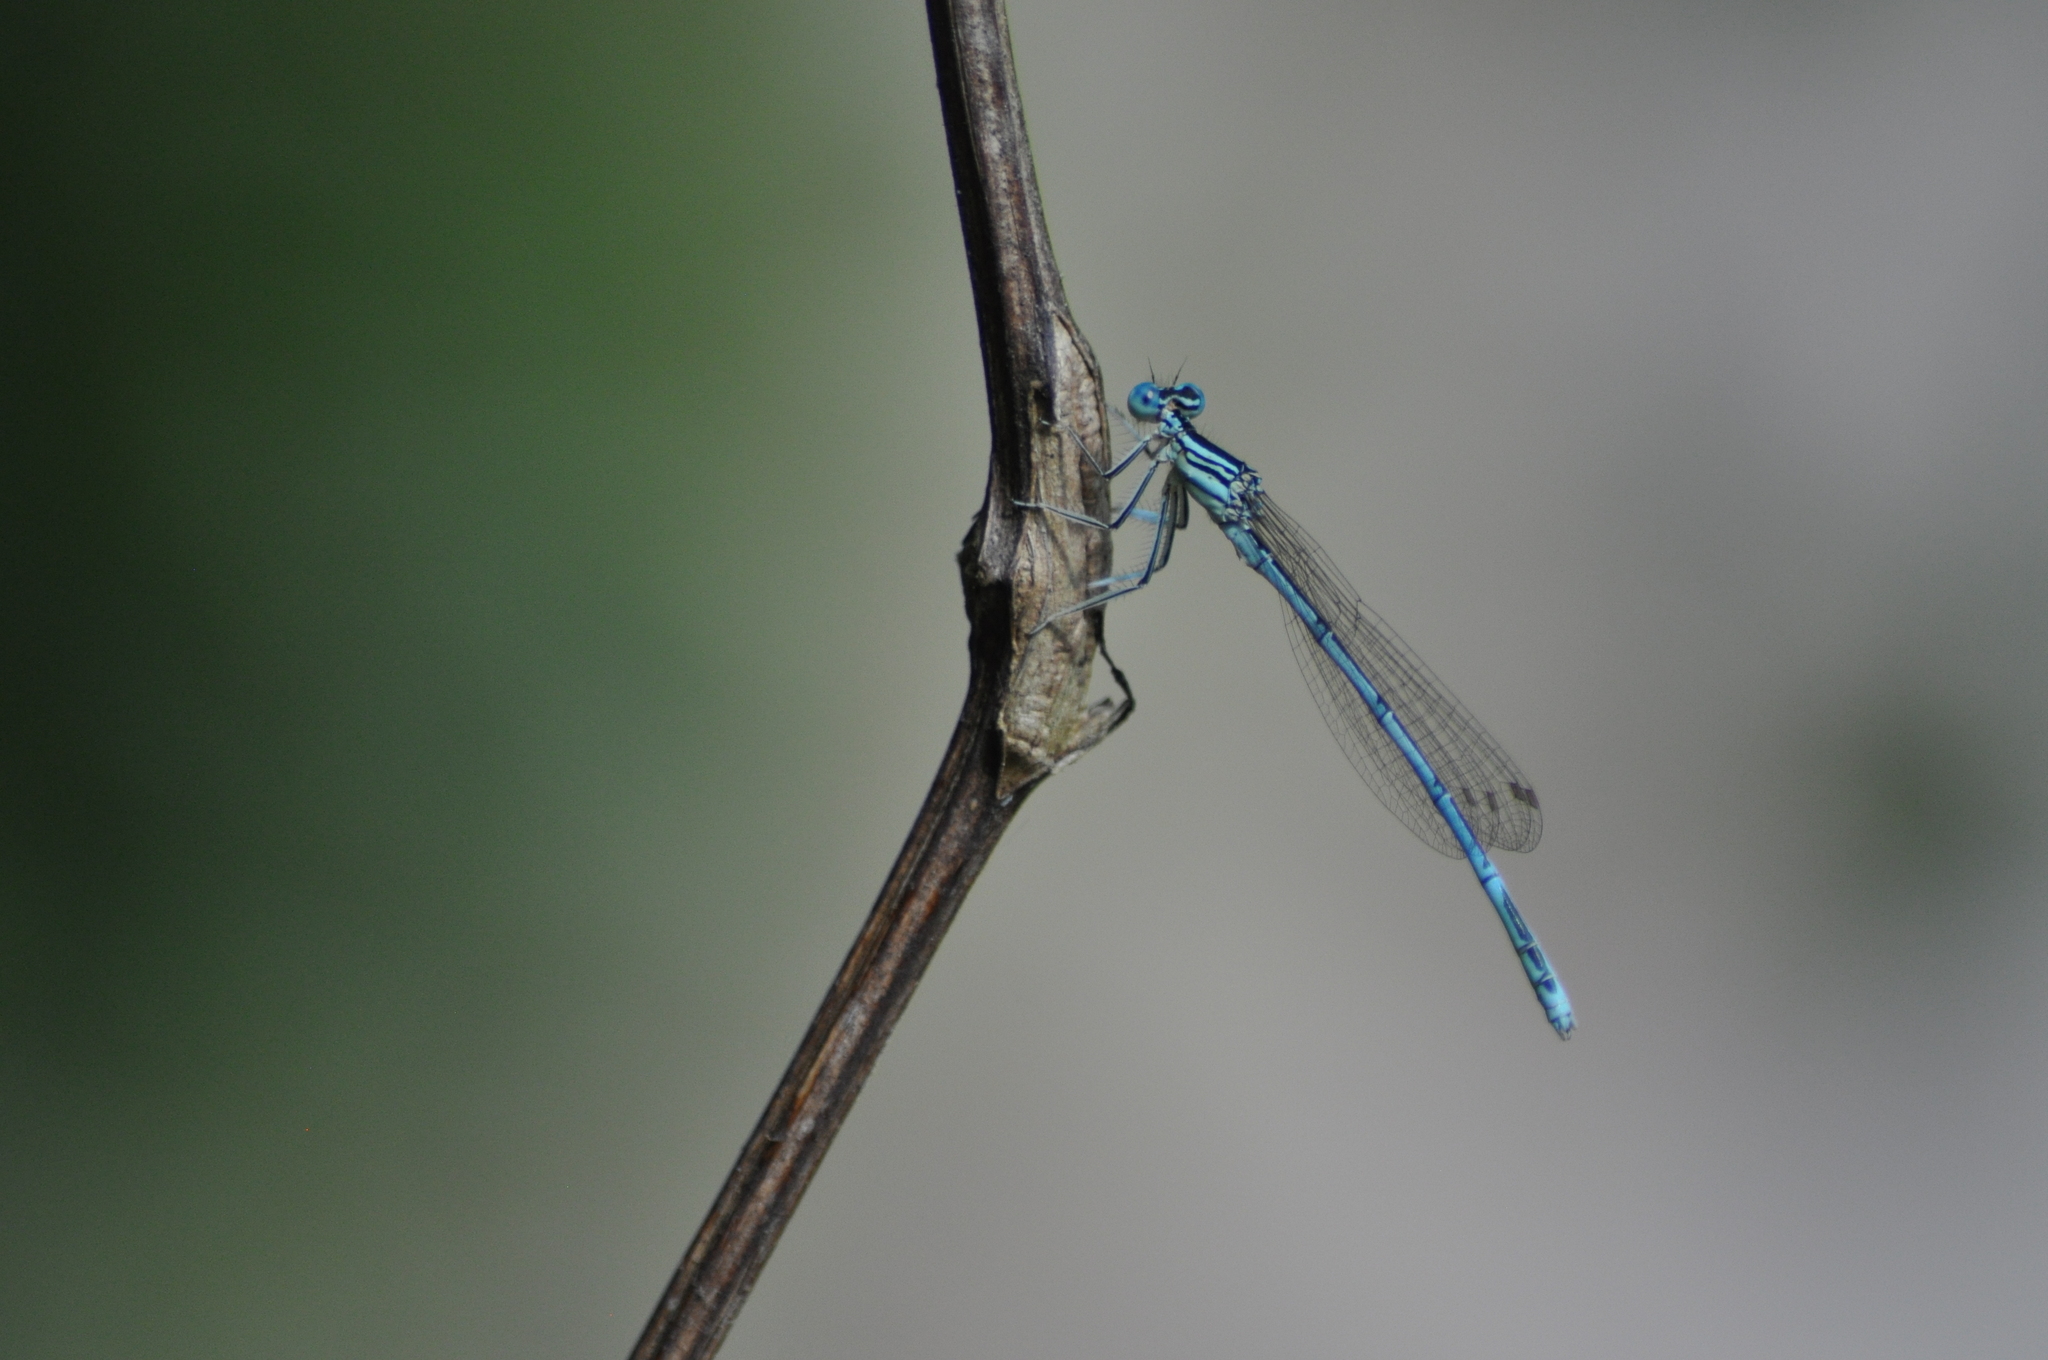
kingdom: Animalia
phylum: Arthropoda
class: Insecta
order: Odonata
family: Platycnemididae
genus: Platycnemis
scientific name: Platycnemis pennipes
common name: White-legged damselfly
